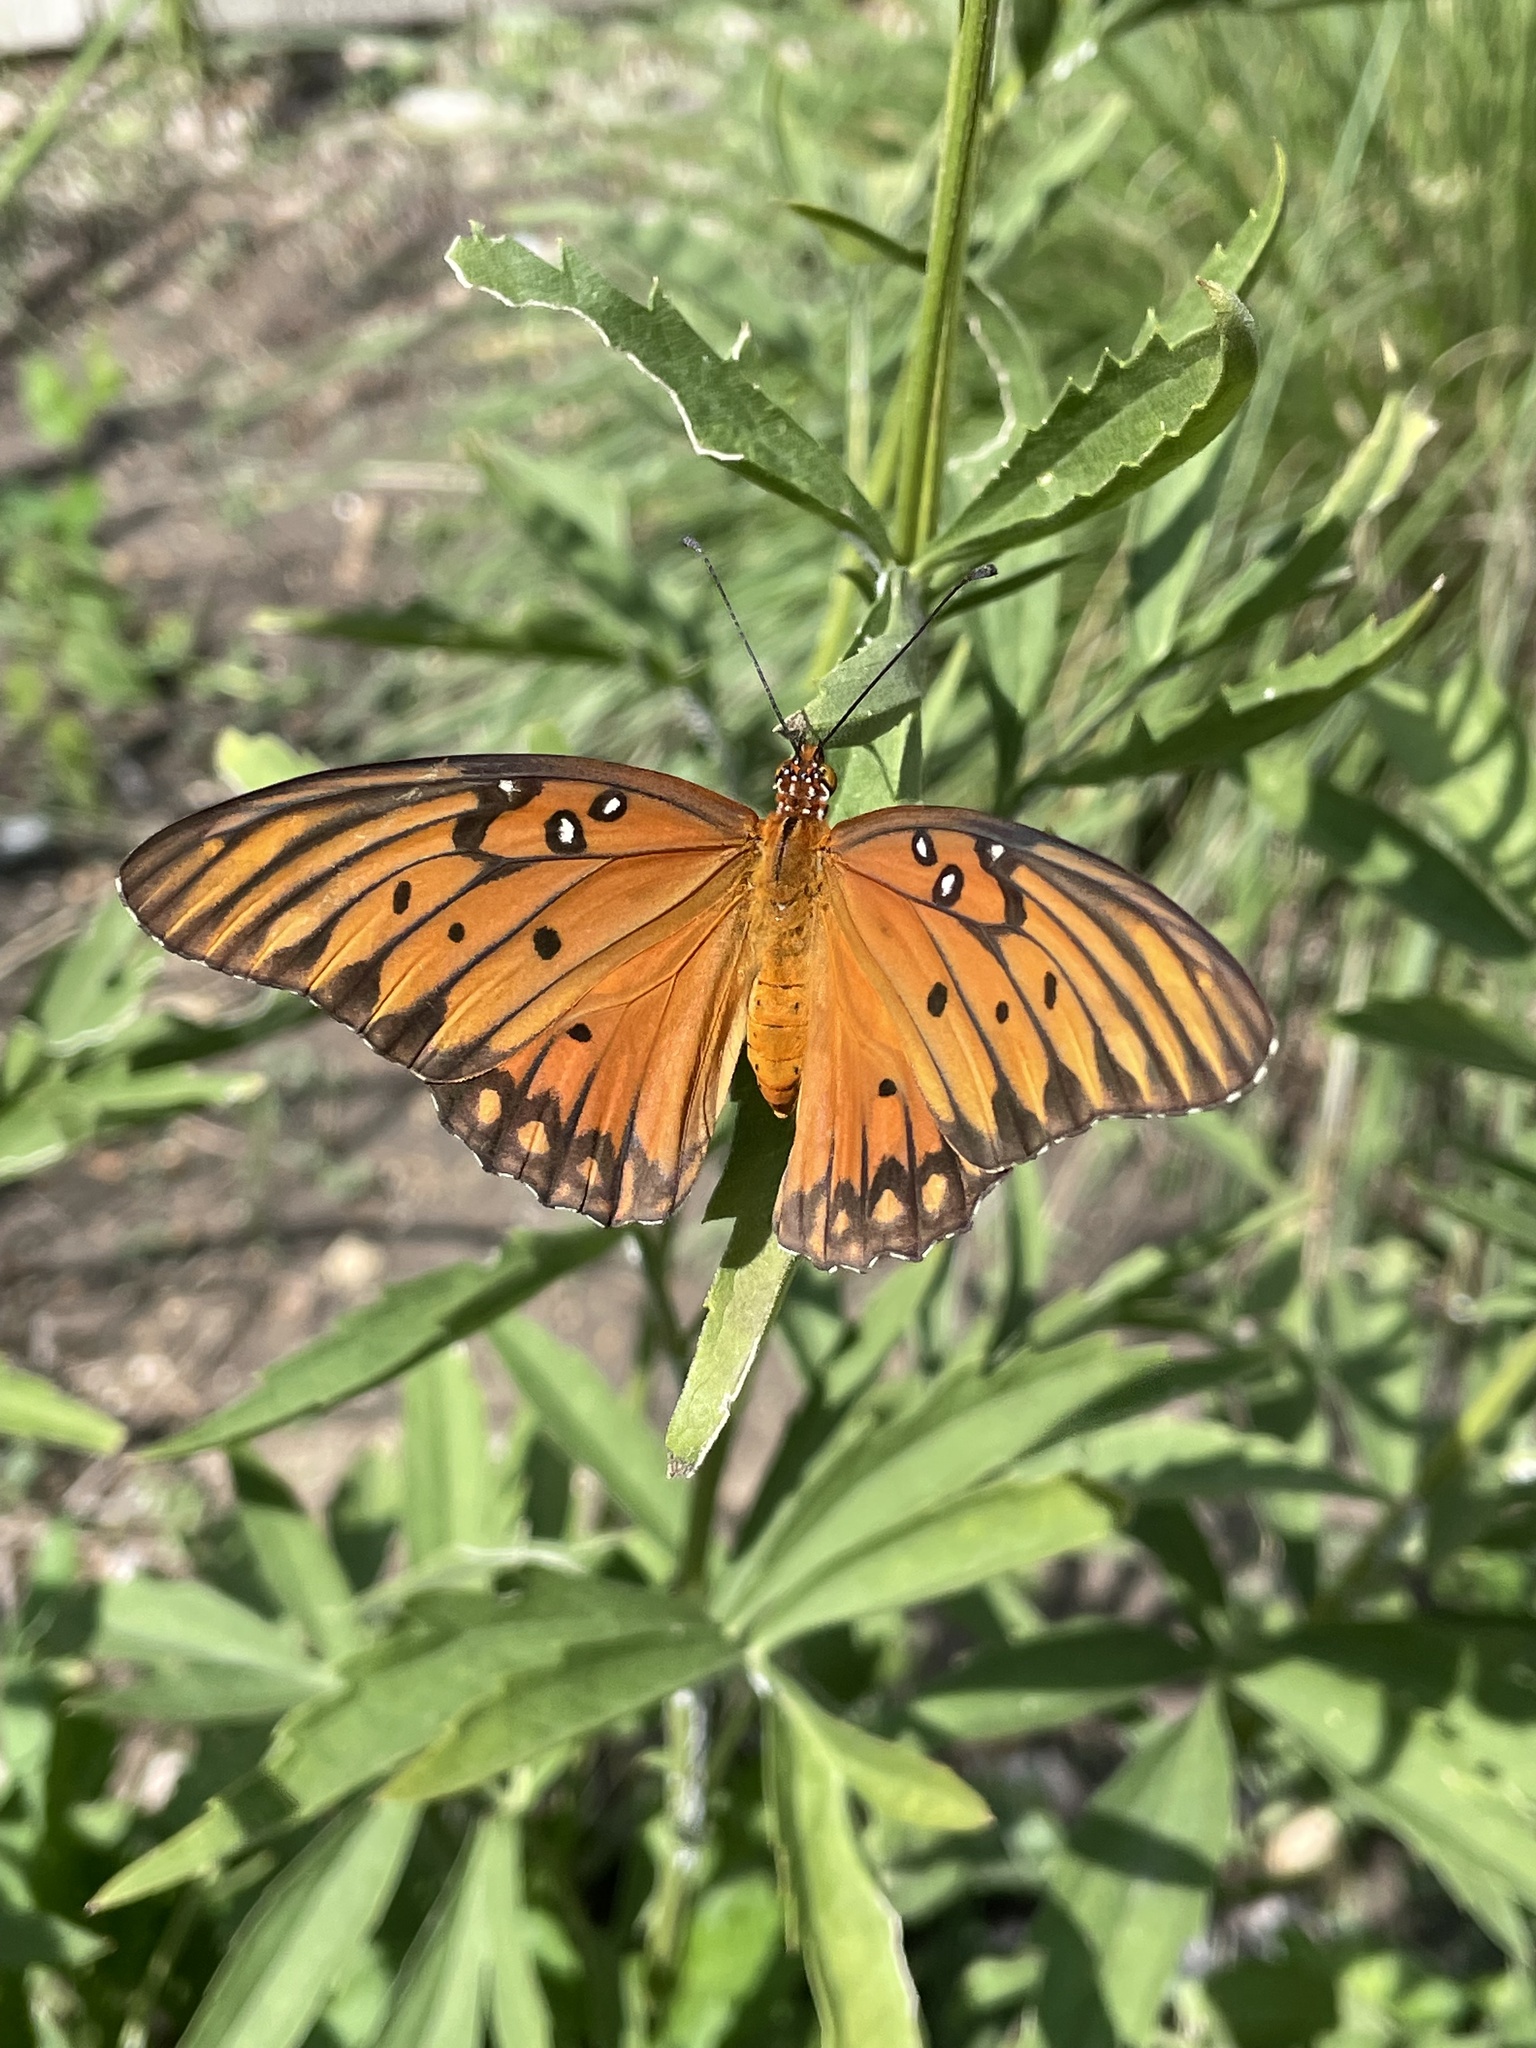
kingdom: Animalia
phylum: Arthropoda
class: Insecta
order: Lepidoptera
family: Nymphalidae
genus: Dione
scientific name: Dione vanillae
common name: Gulf fritillary
